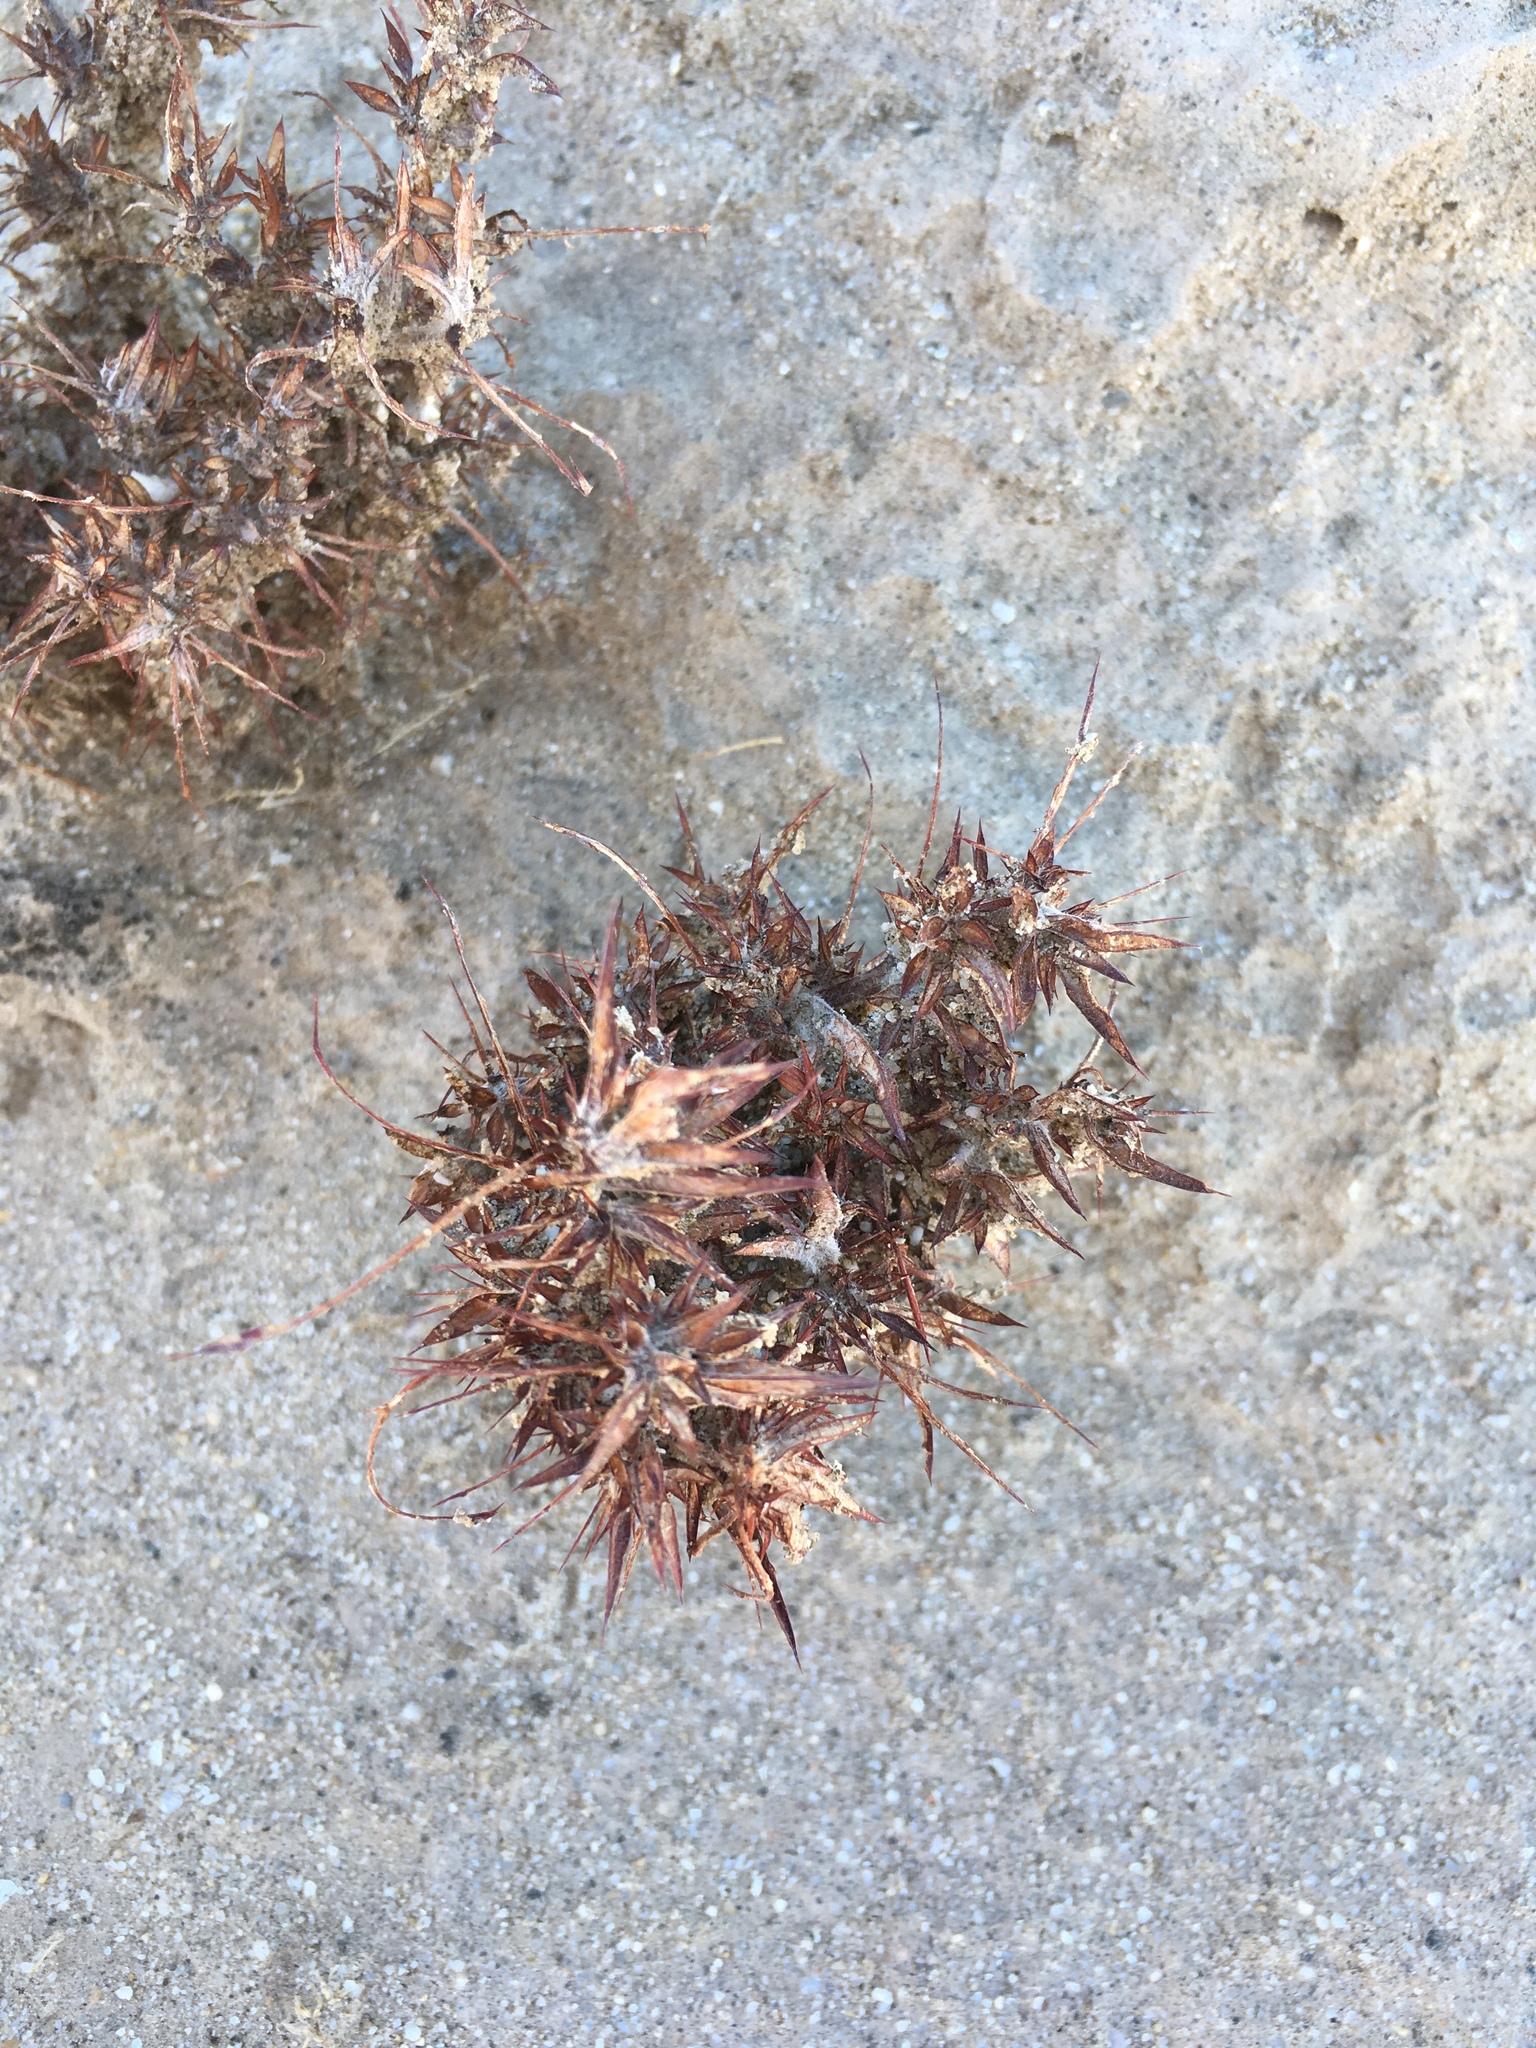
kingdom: Plantae
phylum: Tracheophyta
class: Magnoliopsida
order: Caryophyllales
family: Polygonaceae
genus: Chorizanthe
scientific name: Chorizanthe rigida
